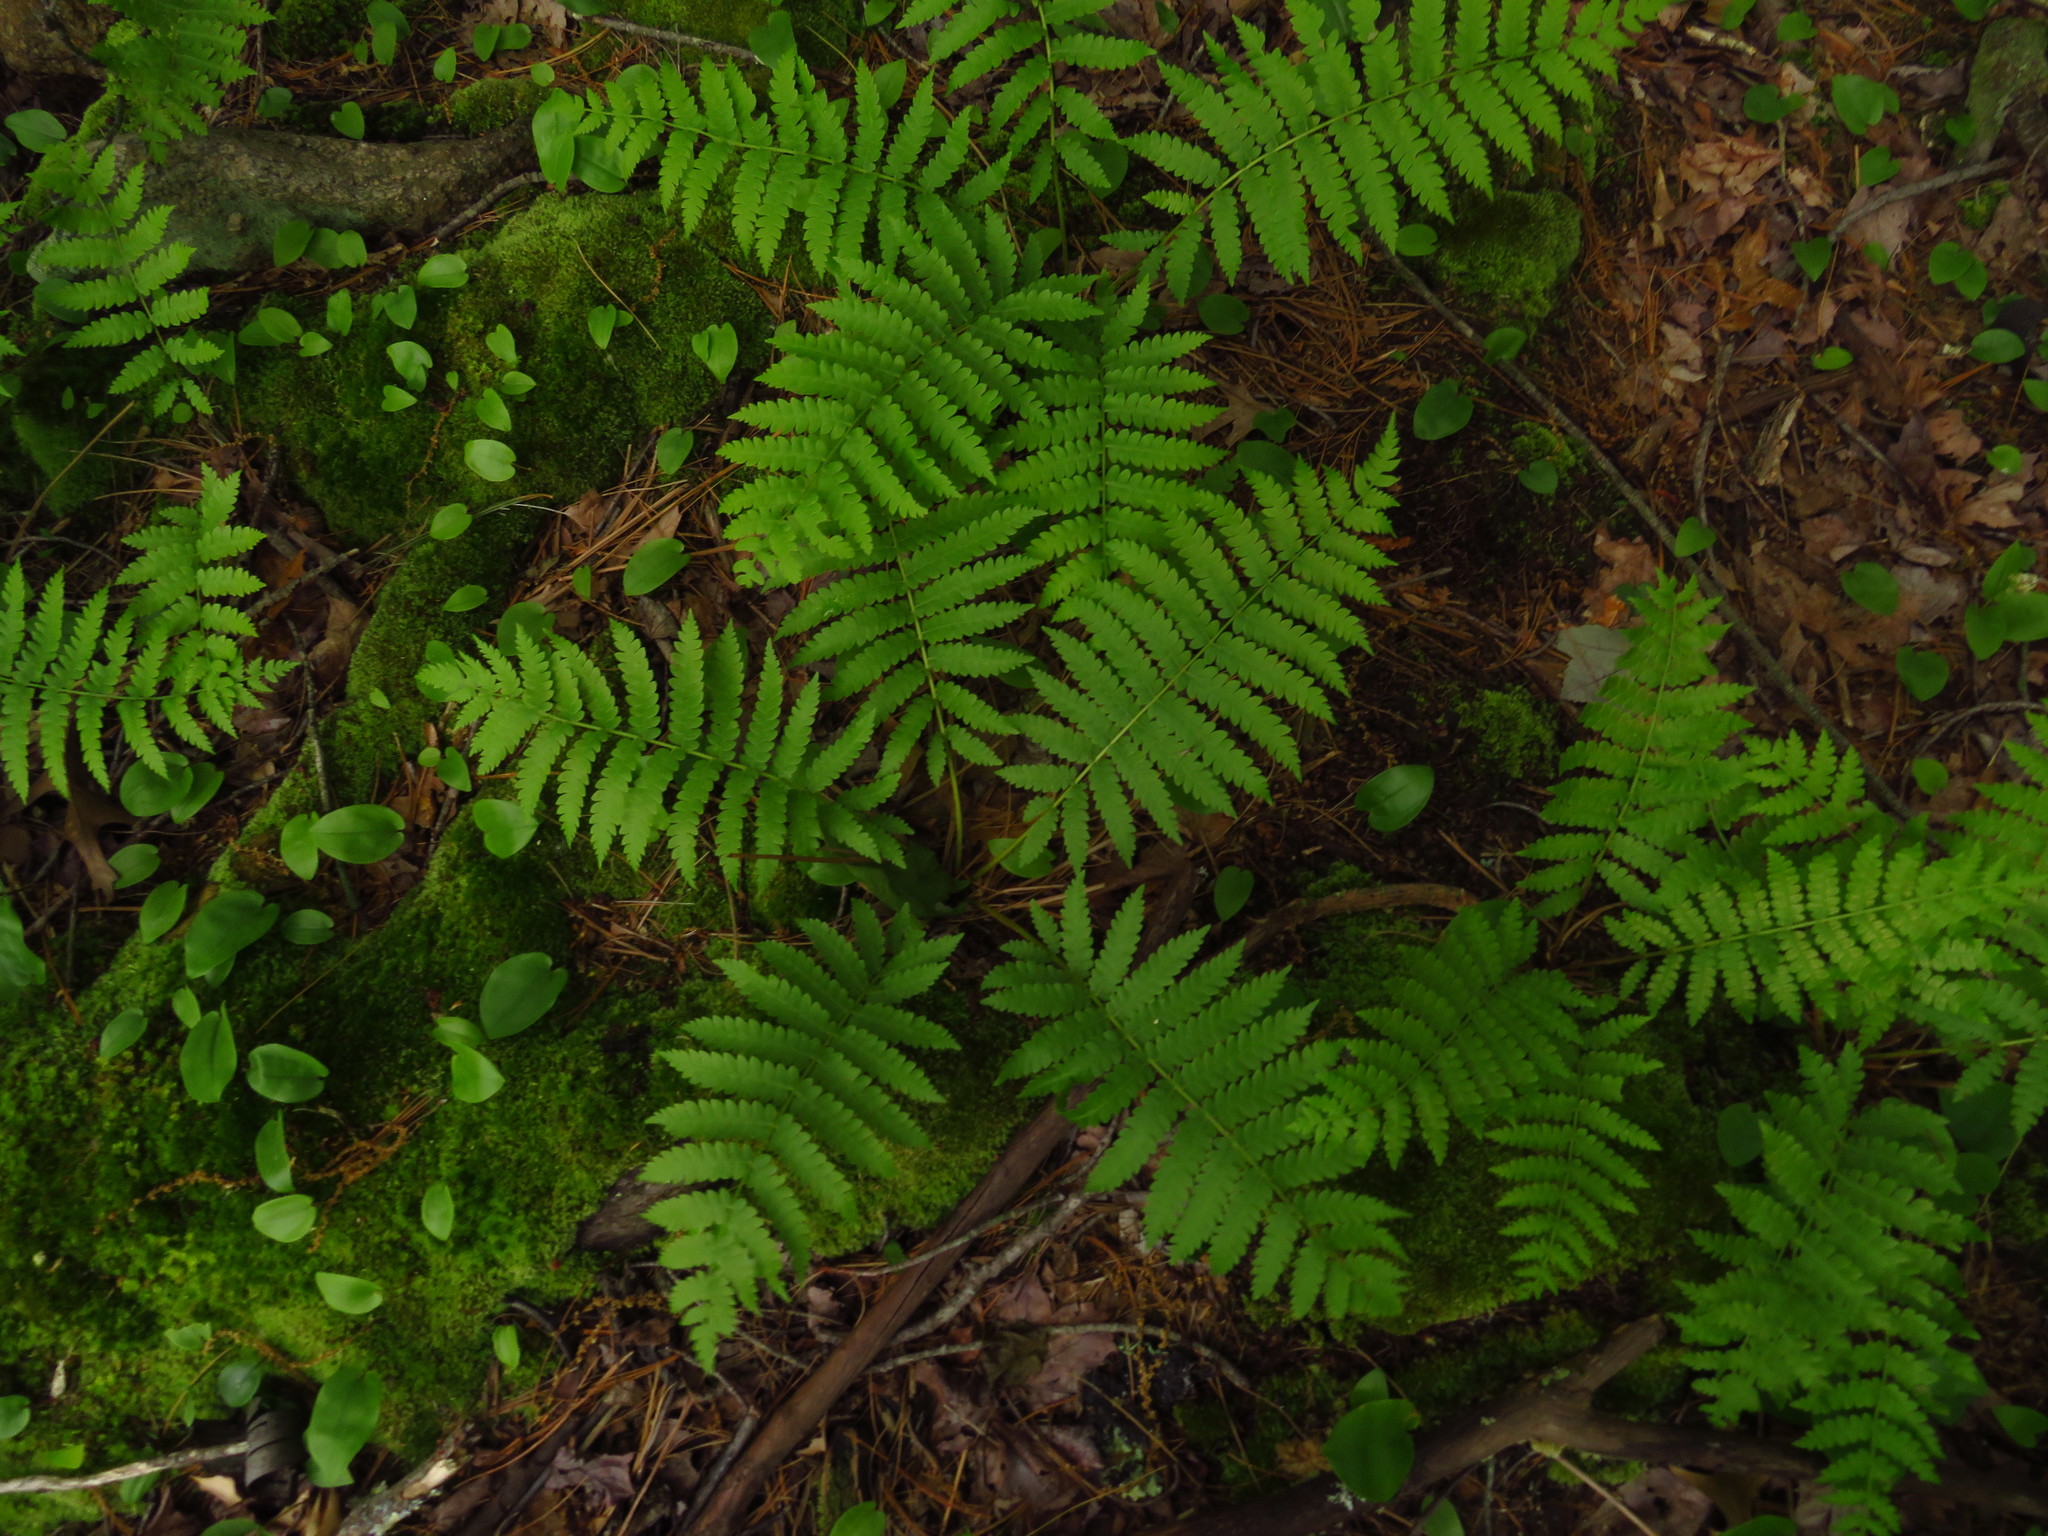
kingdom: Plantae
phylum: Tracheophyta
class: Polypodiopsida
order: Osmundales
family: Osmundaceae
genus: Osmundastrum
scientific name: Osmundastrum cinnamomeum
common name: Cinnamon fern
